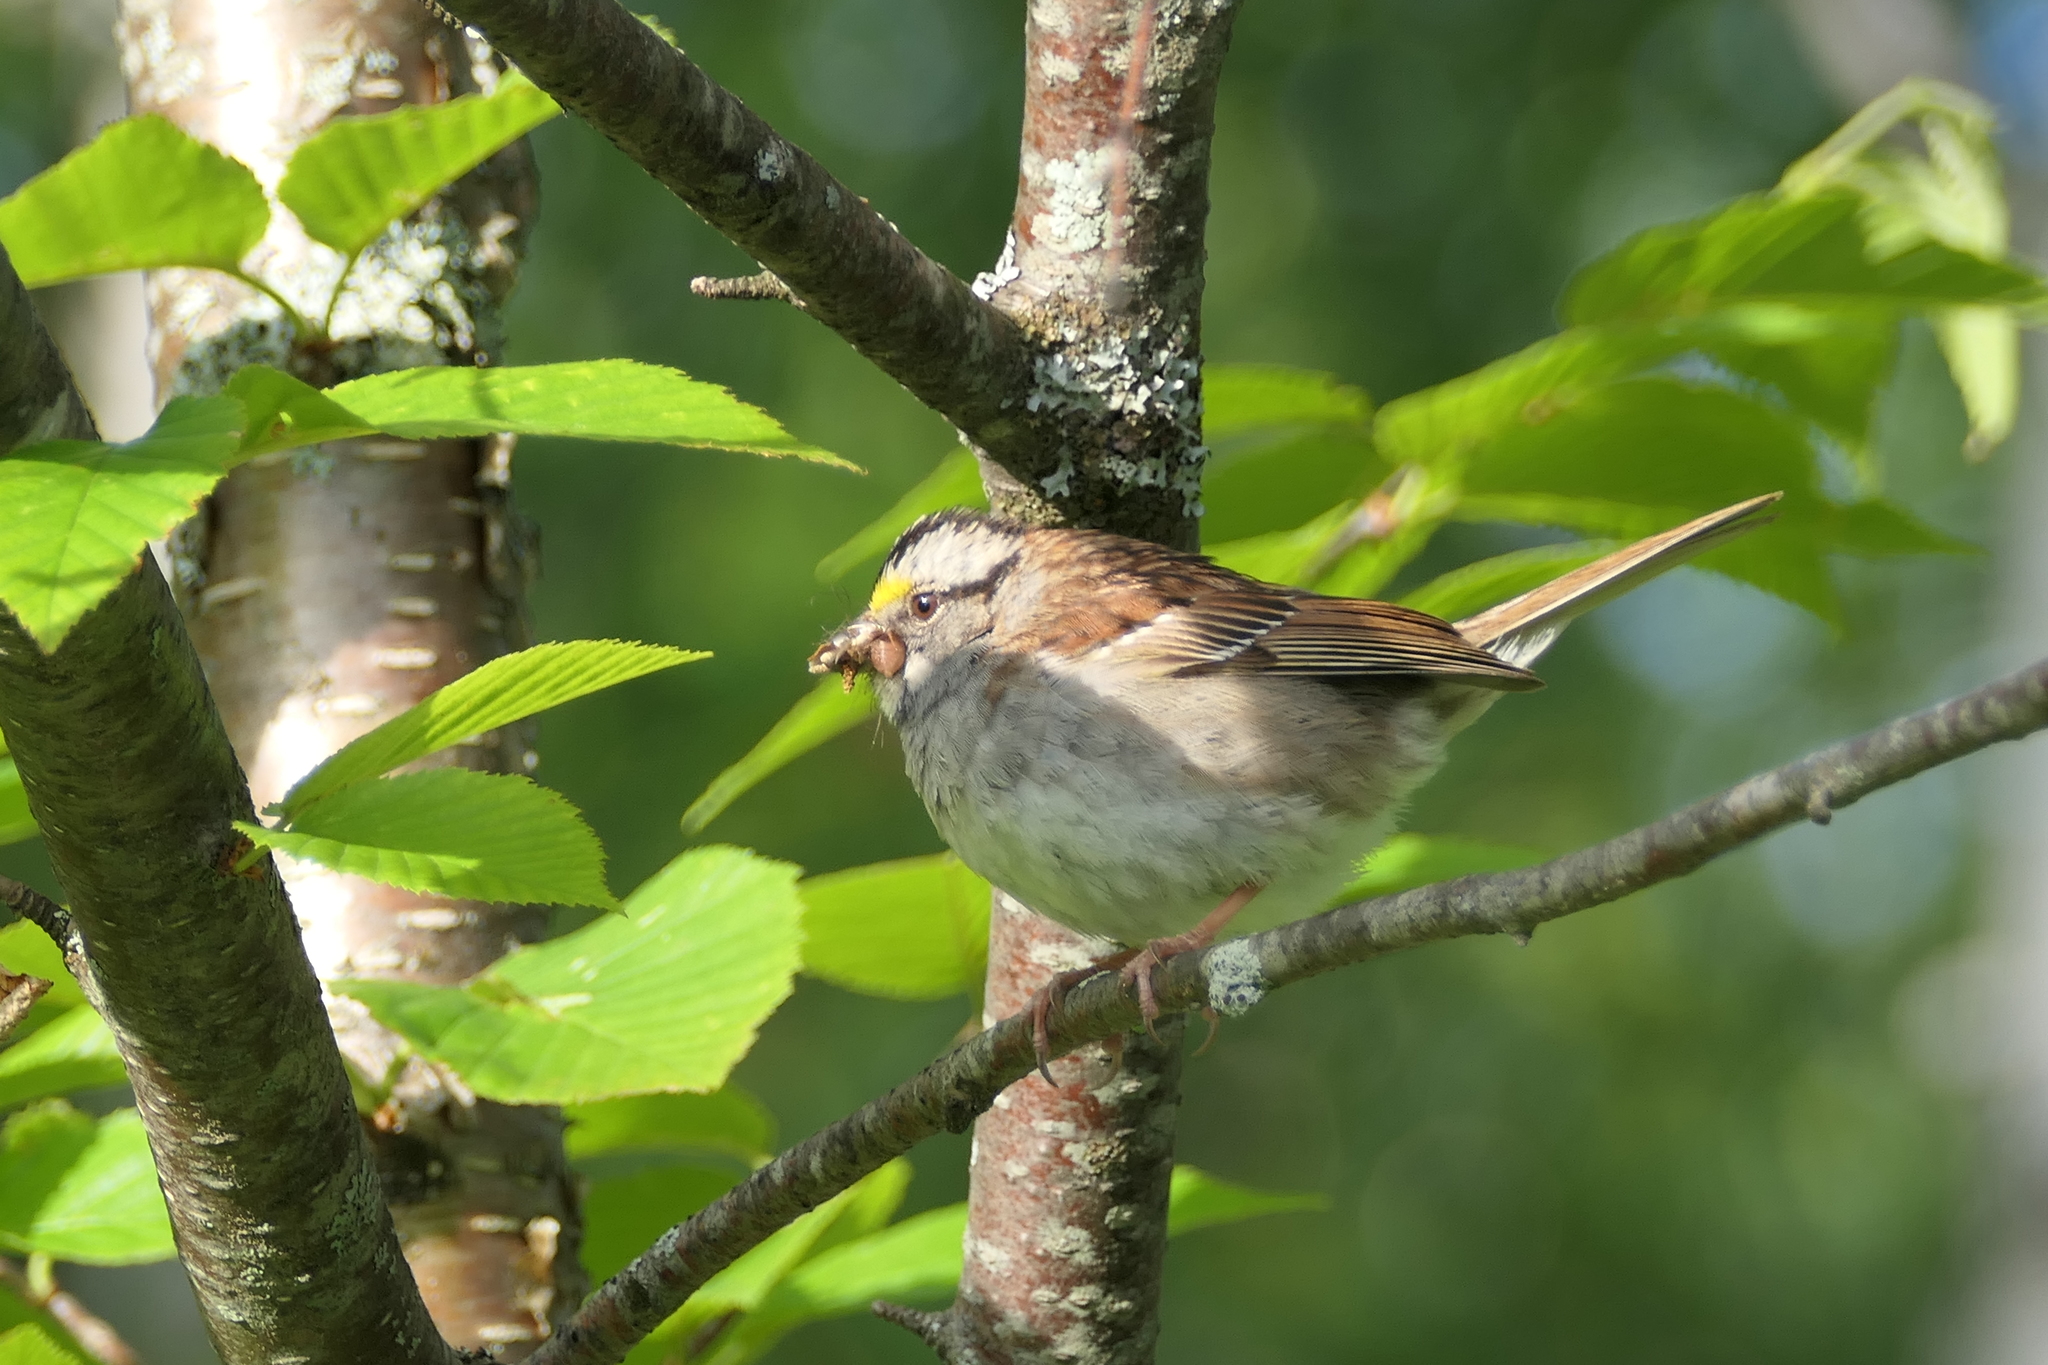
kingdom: Animalia
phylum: Chordata
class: Aves
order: Passeriformes
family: Passerellidae
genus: Zonotrichia
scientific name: Zonotrichia albicollis
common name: White-throated sparrow
